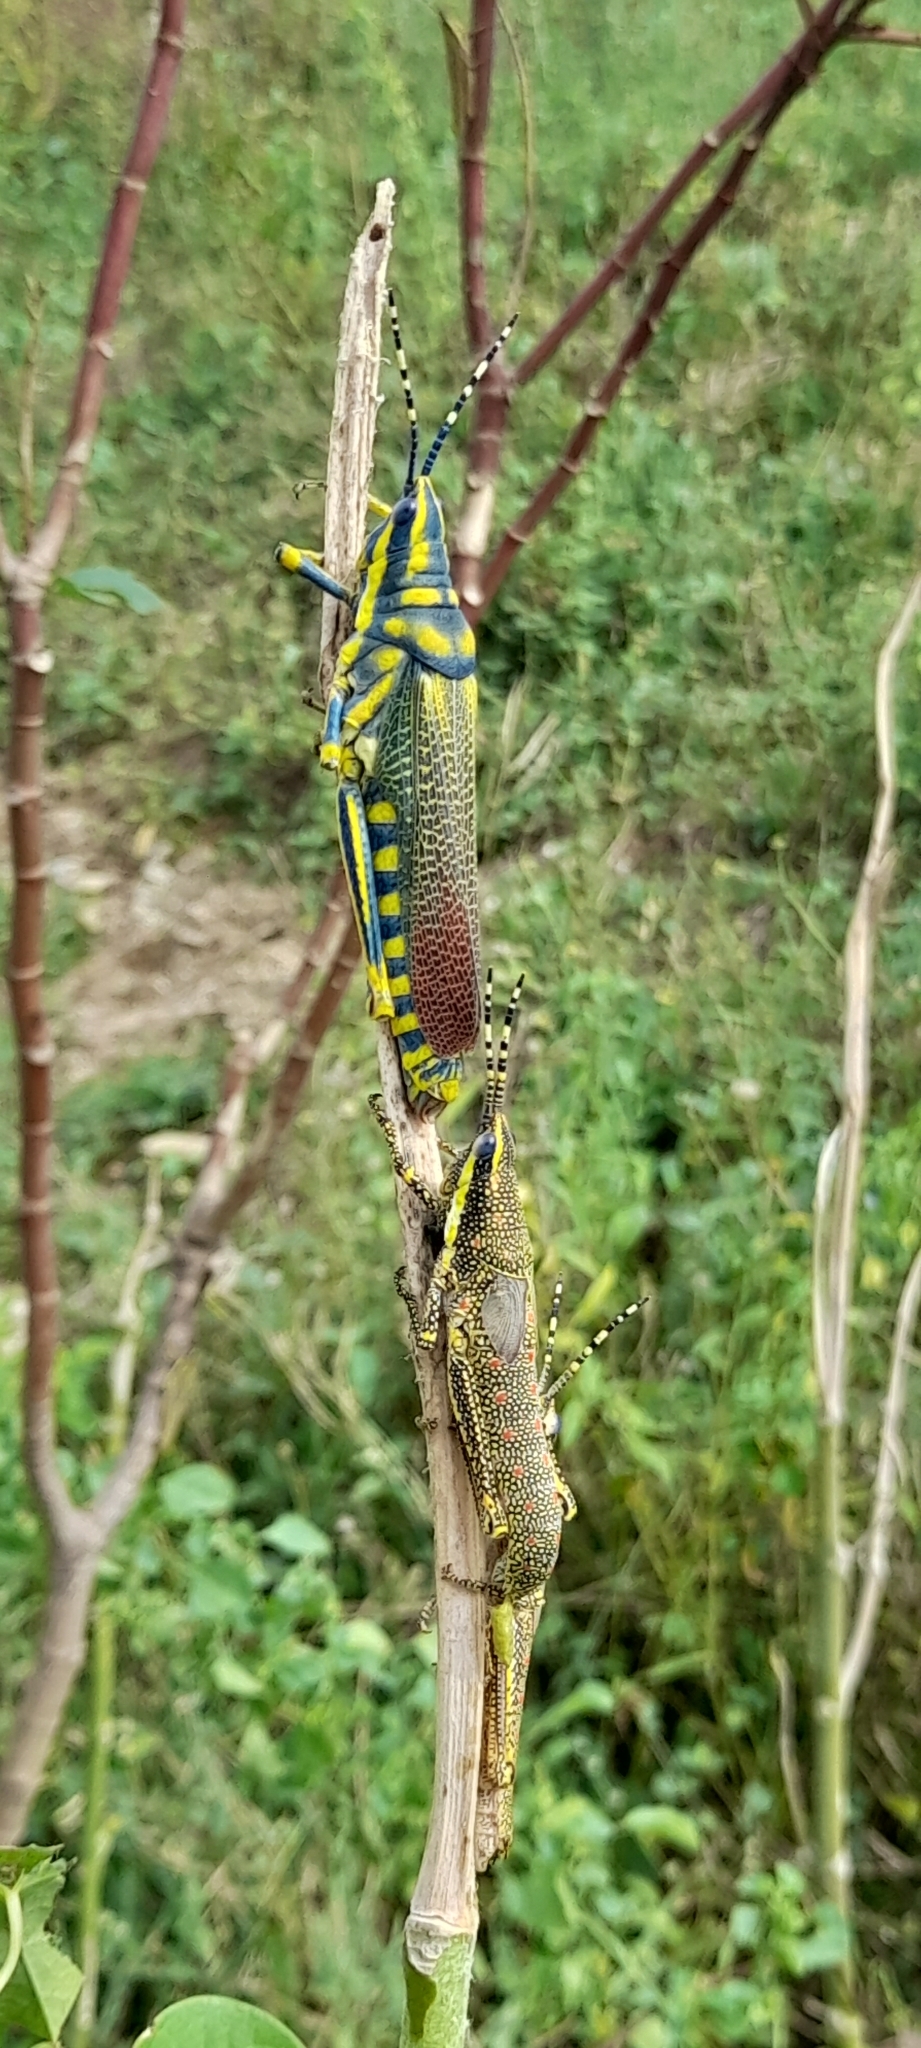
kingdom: Animalia
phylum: Arthropoda
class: Insecta
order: Orthoptera
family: Pyrgomorphidae
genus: Poekilocerus
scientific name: Poekilocerus pictus
